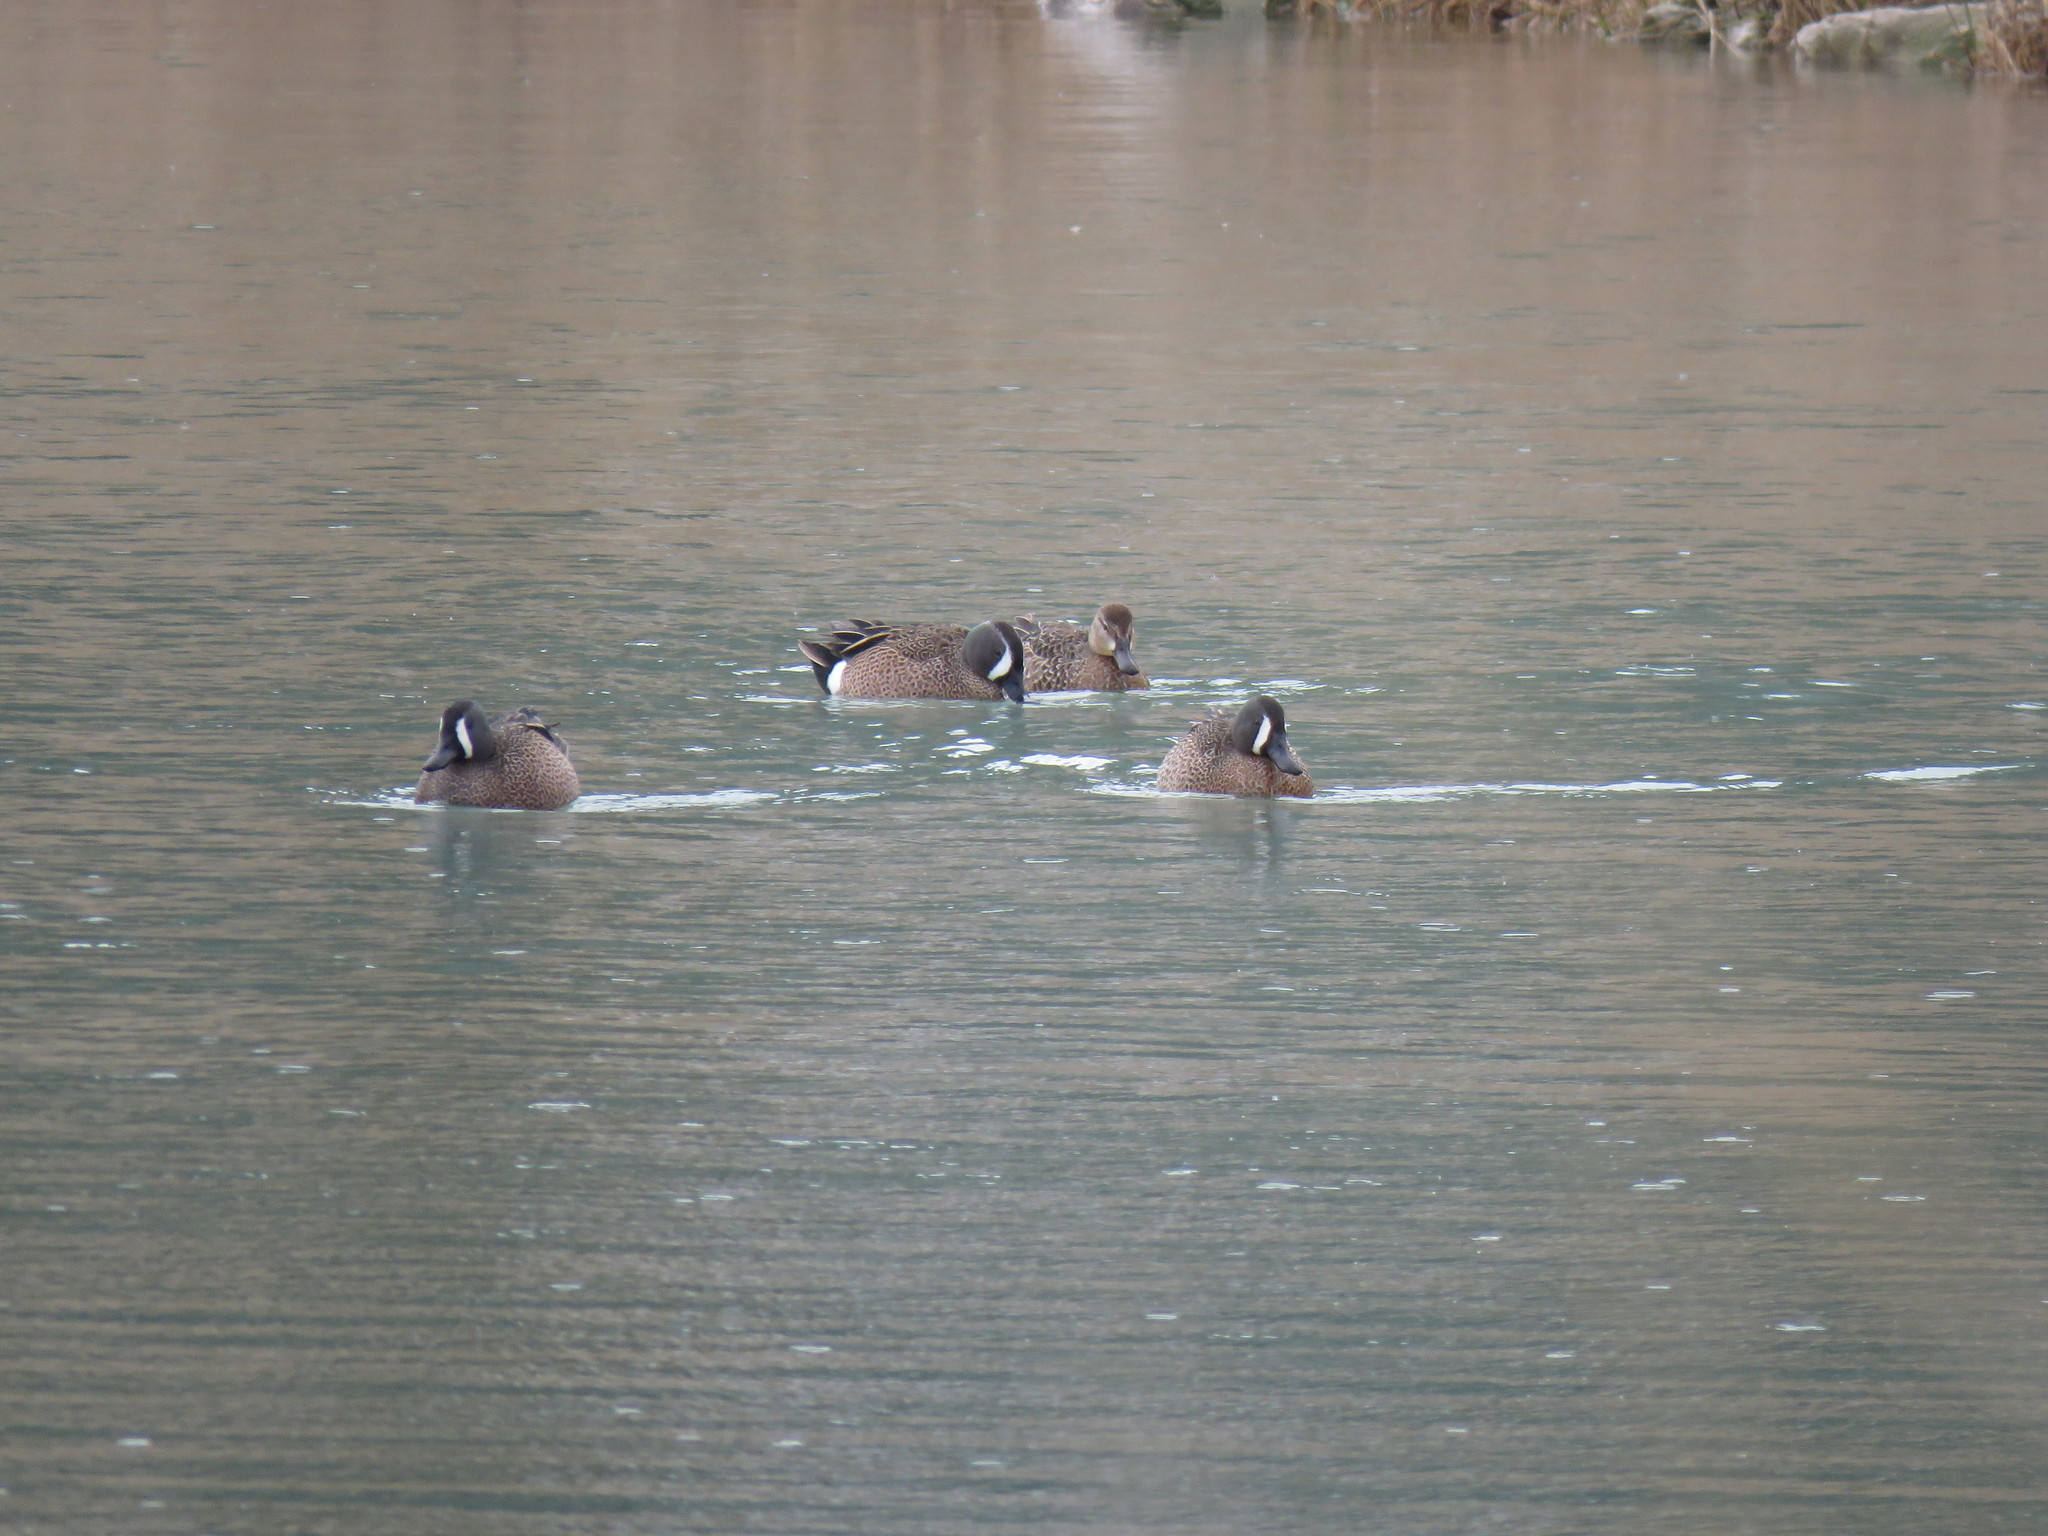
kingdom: Animalia
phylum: Chordata
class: Aves
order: Anseriformes
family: Anatidae
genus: Spatula
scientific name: Spatula discors
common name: Blue-winged teal
